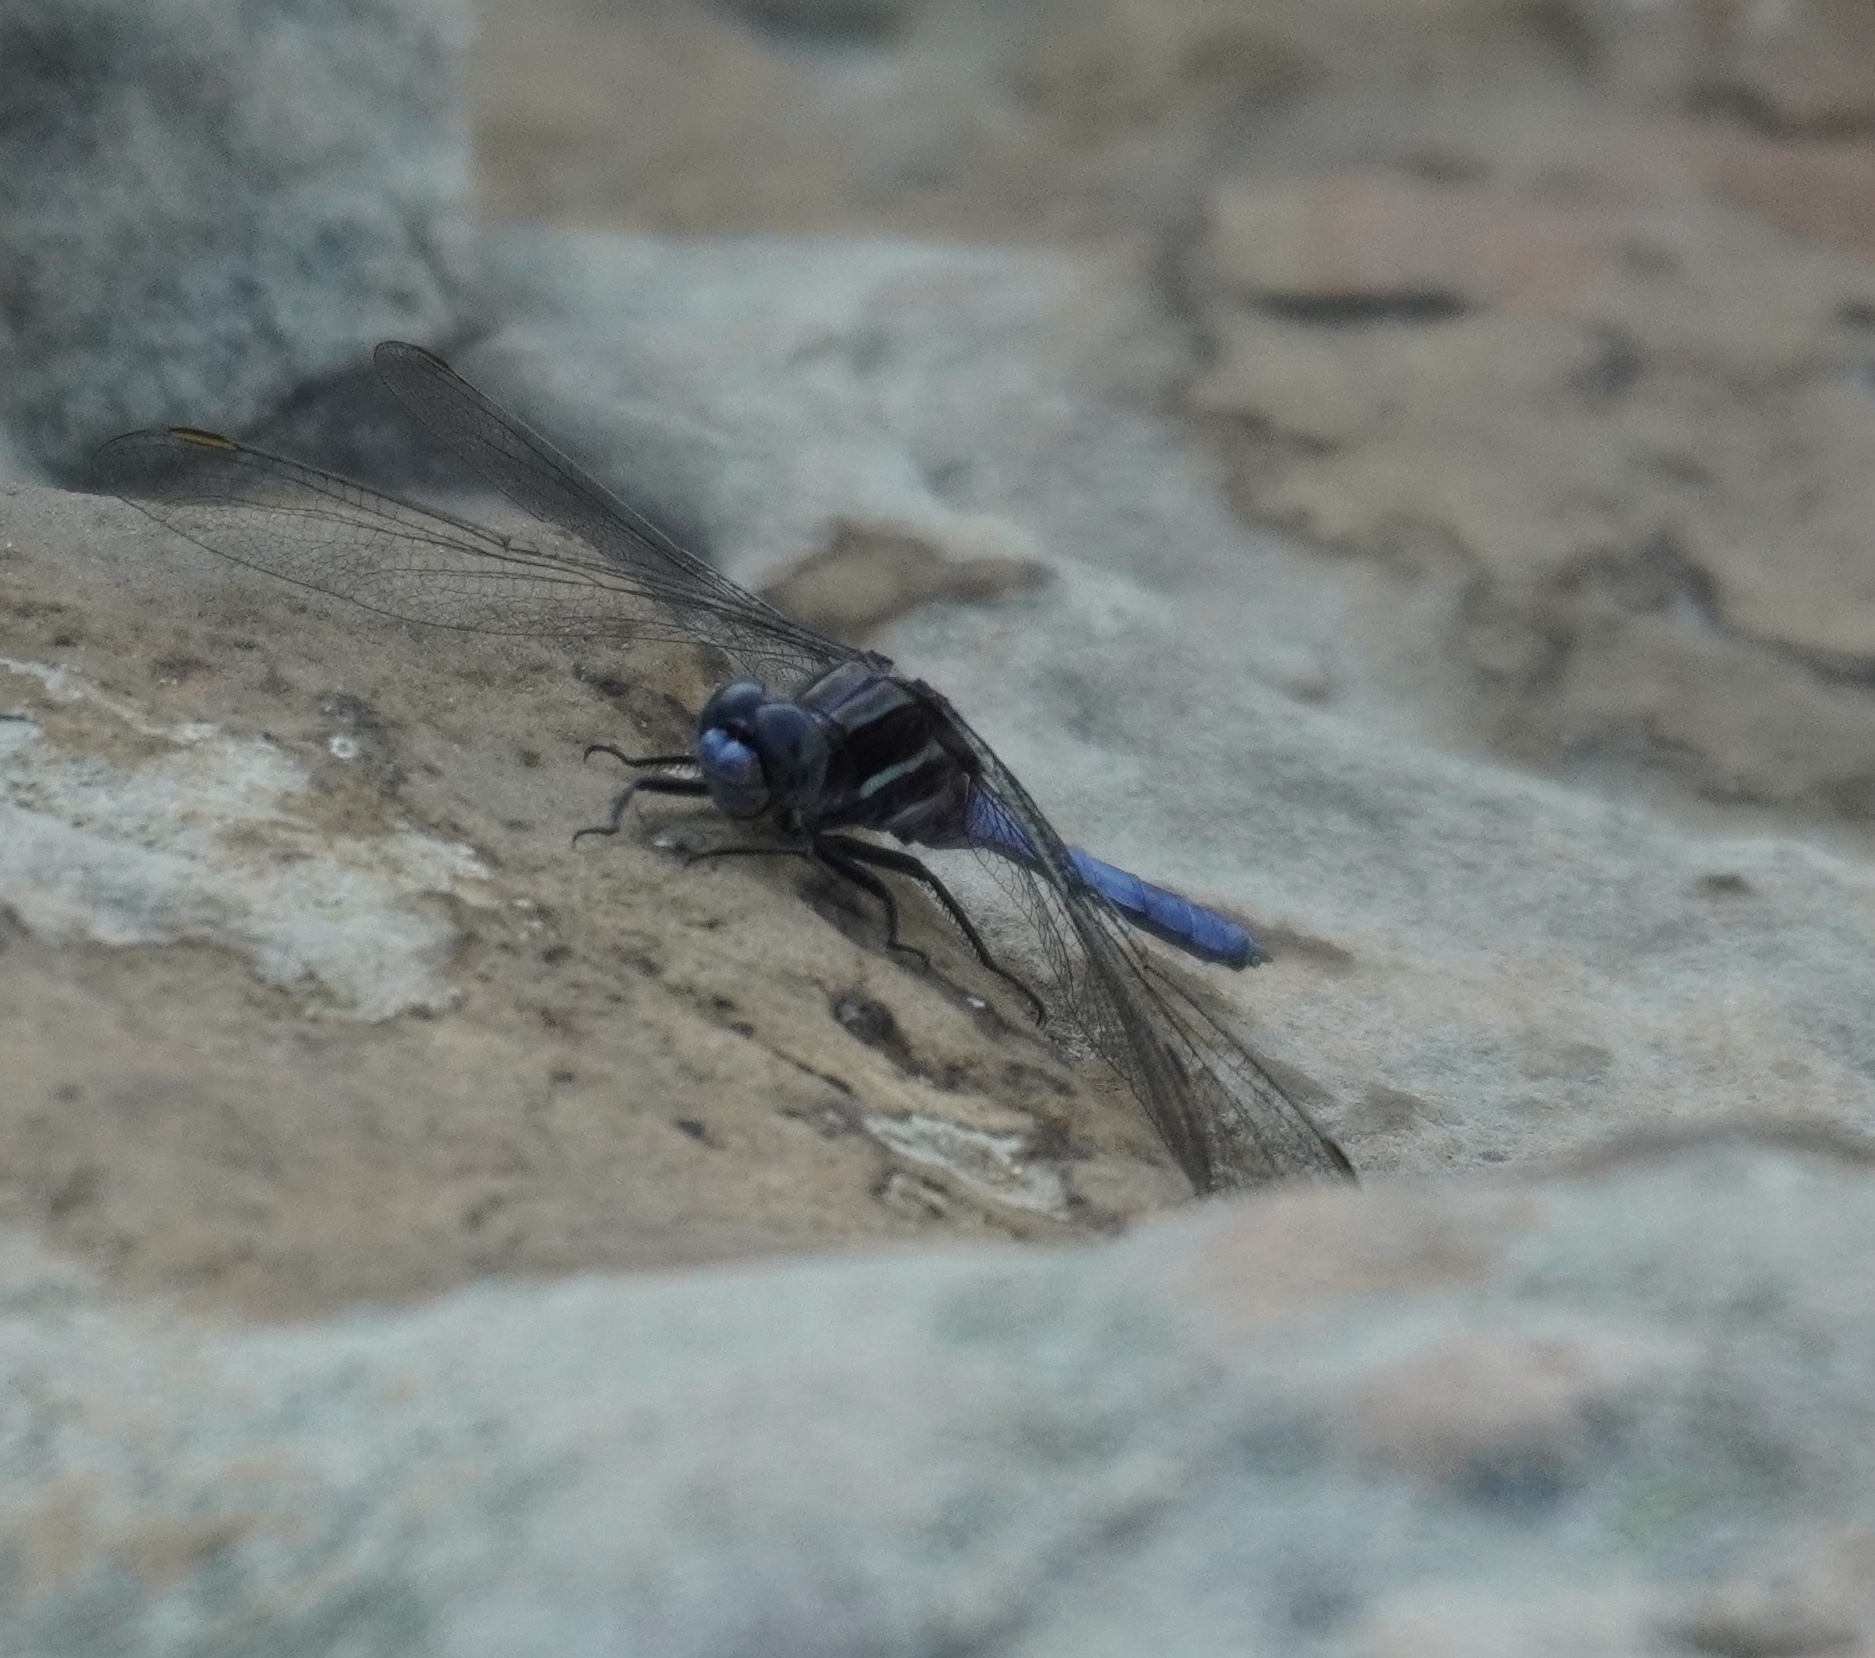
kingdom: Animalia
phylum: Arthropoda
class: Insecta
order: Odonata
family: Libellulidae
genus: Orthetrum
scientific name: Orthetrum caffrum
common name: Two-striped skimmer
